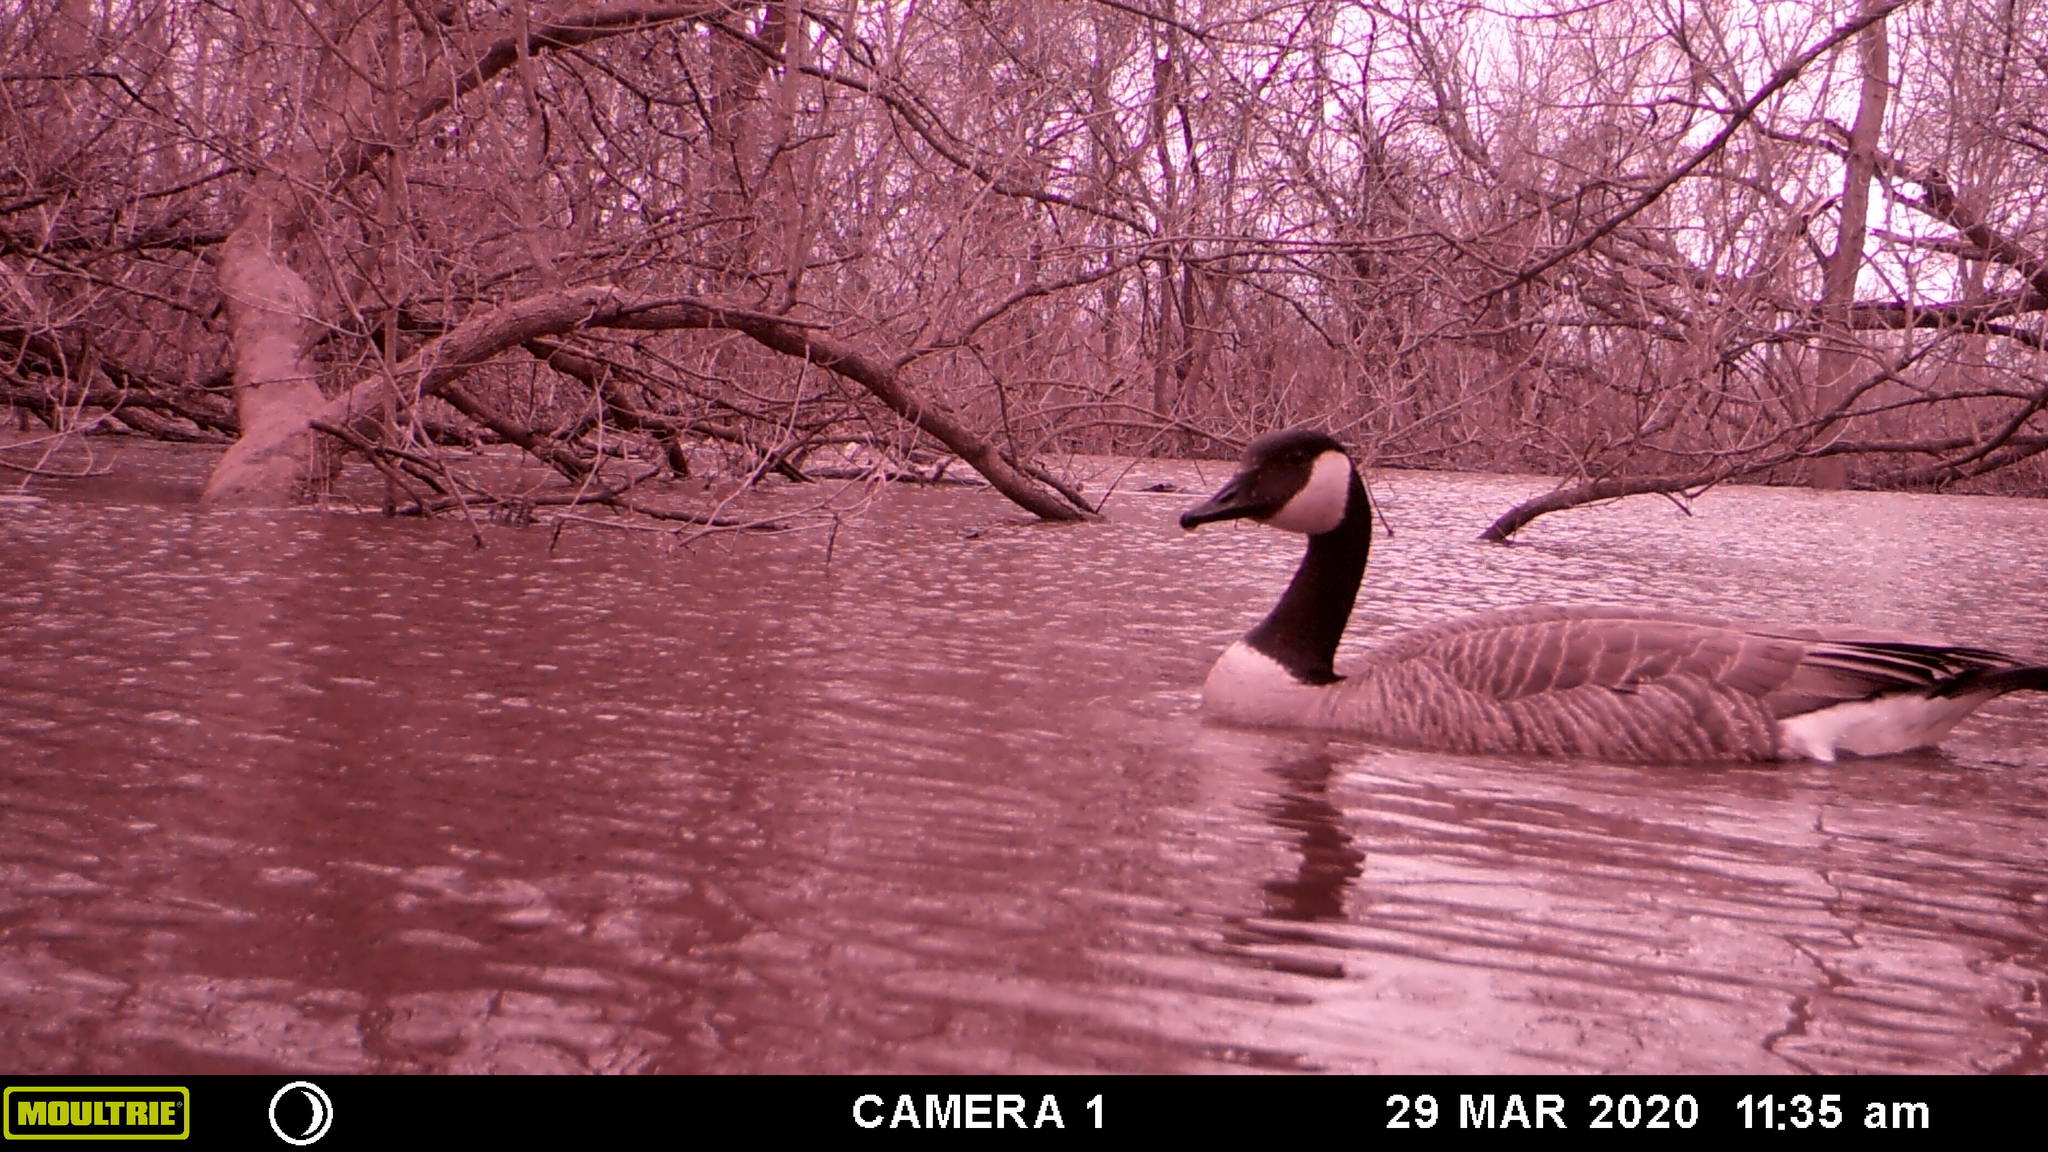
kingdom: Animalia
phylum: Chordata
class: Aves
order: Anseriformes
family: Anatidae
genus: Branta
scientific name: Branta canadensis
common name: Canada goose
